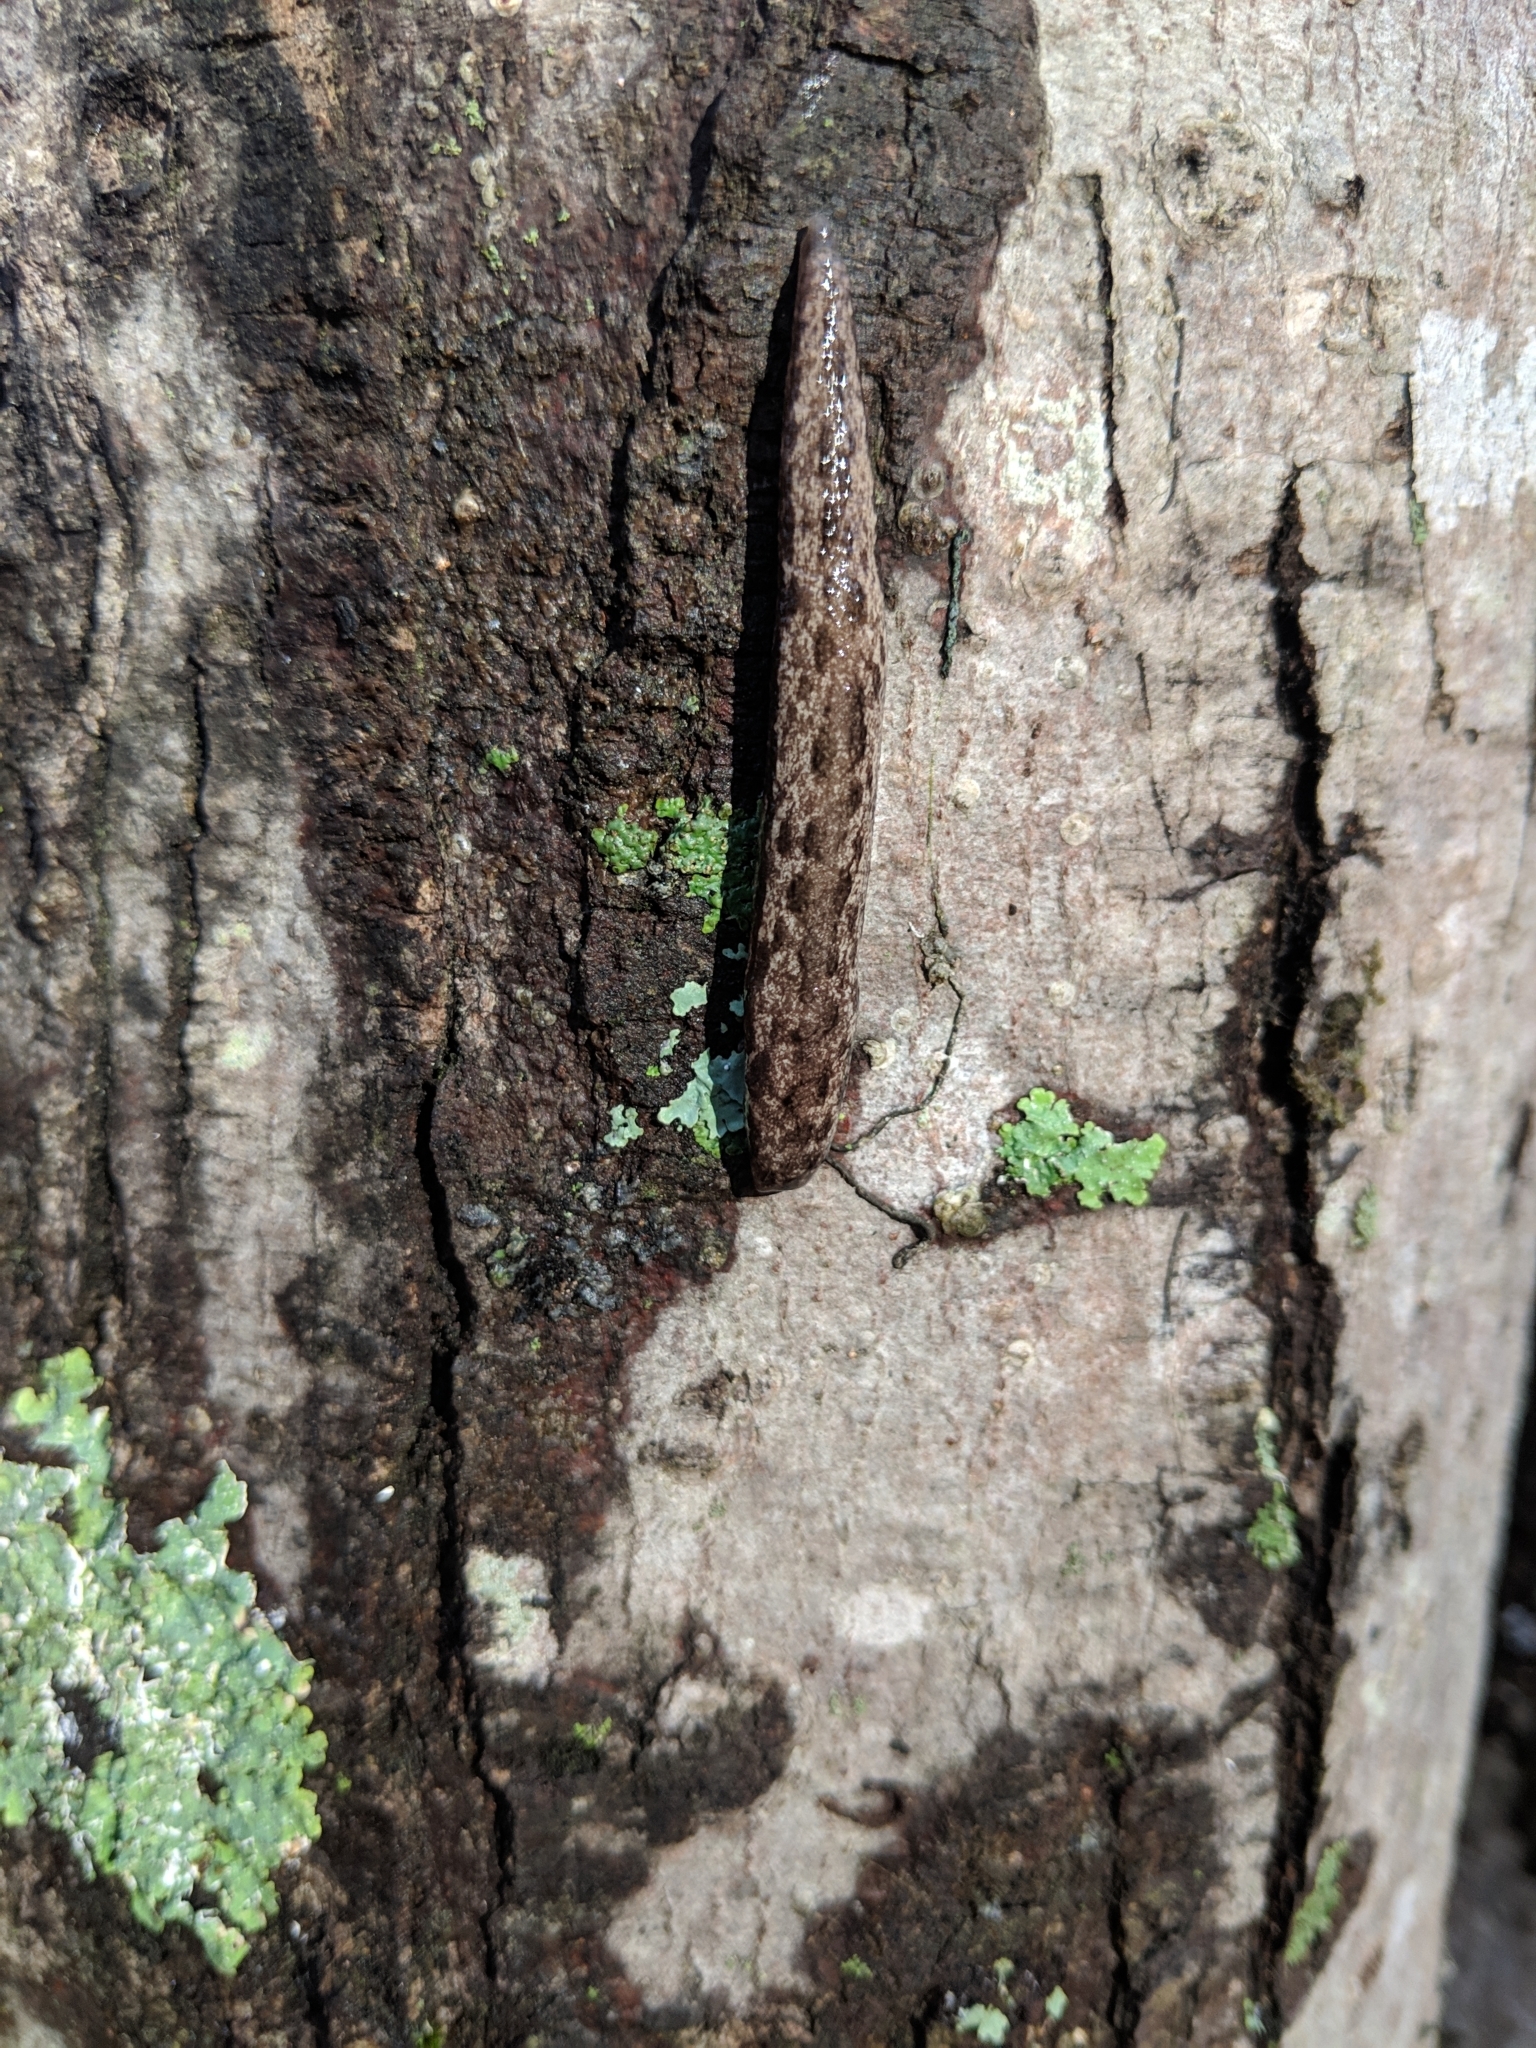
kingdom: Animalia
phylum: Mollusca
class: Gastropoda
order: Stylommatophora
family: Philomycidae
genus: Megapallifera
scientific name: Megapallifera mutabilis
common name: Changeable mantleslug
